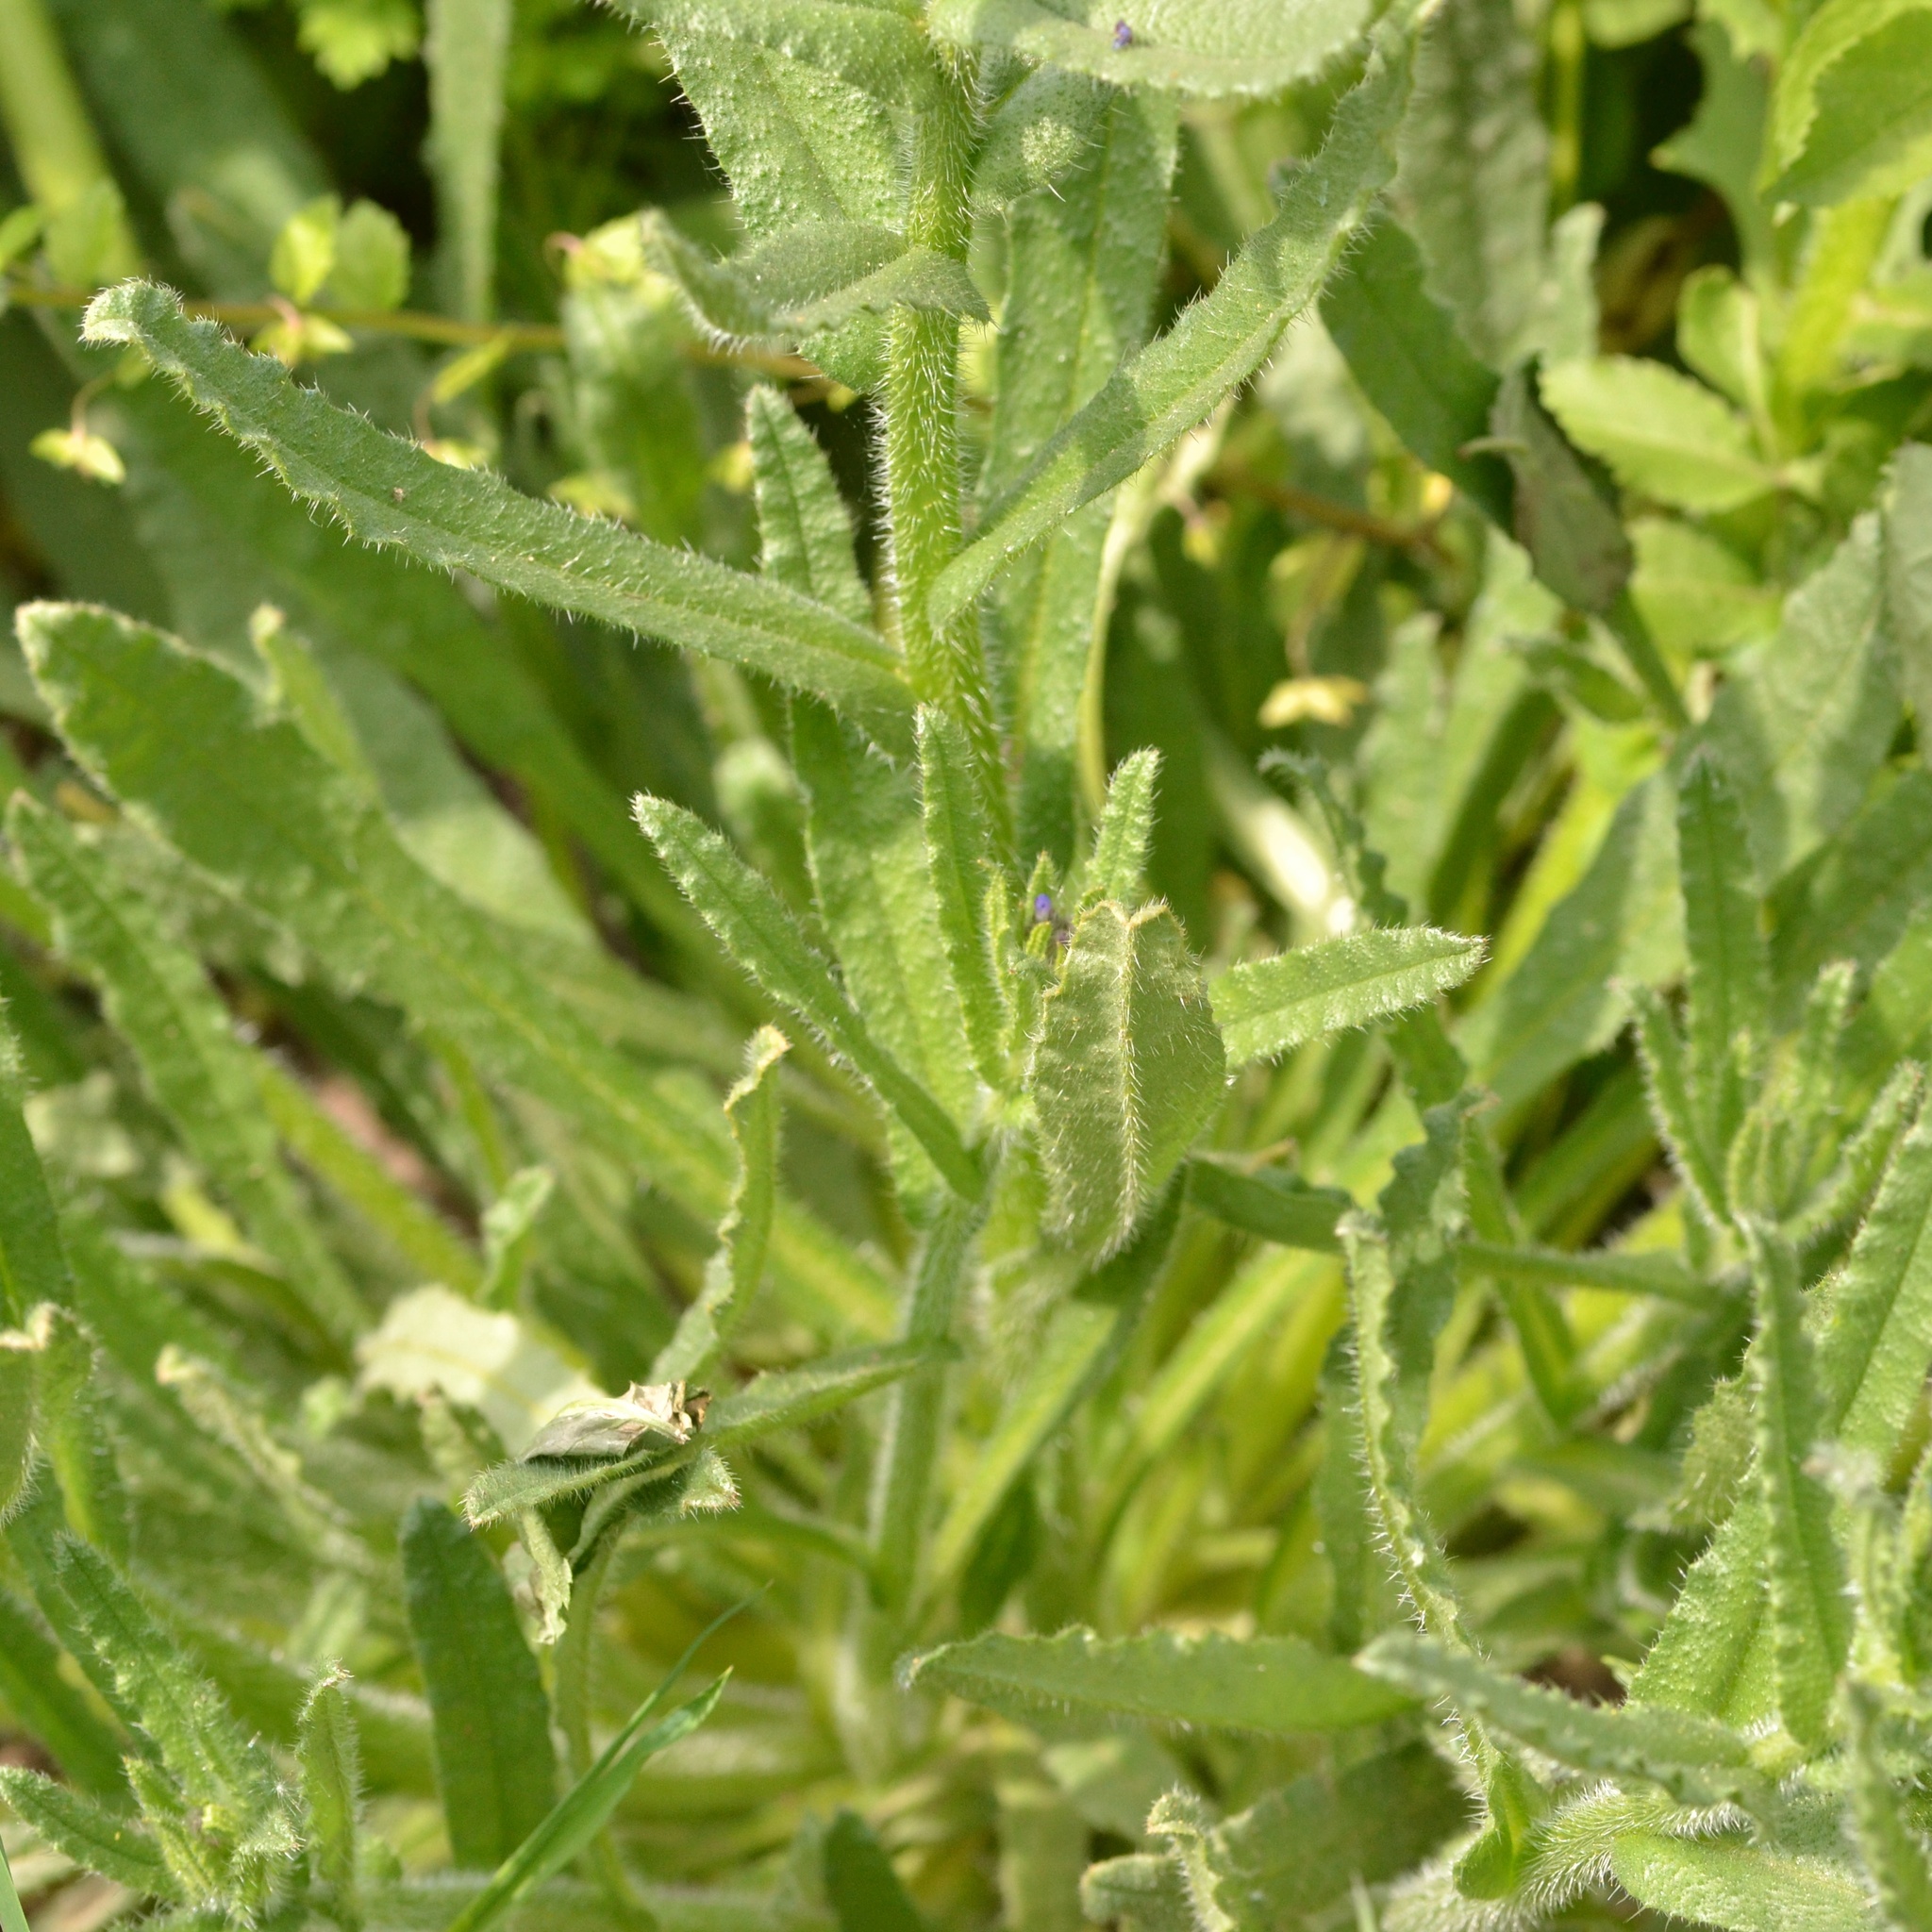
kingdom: Plantae
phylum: Tracheophyta
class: Magnoliopsida
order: Boraginales
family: Boraginaceae
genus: Lycopsis
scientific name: Lycopsis arvensis
